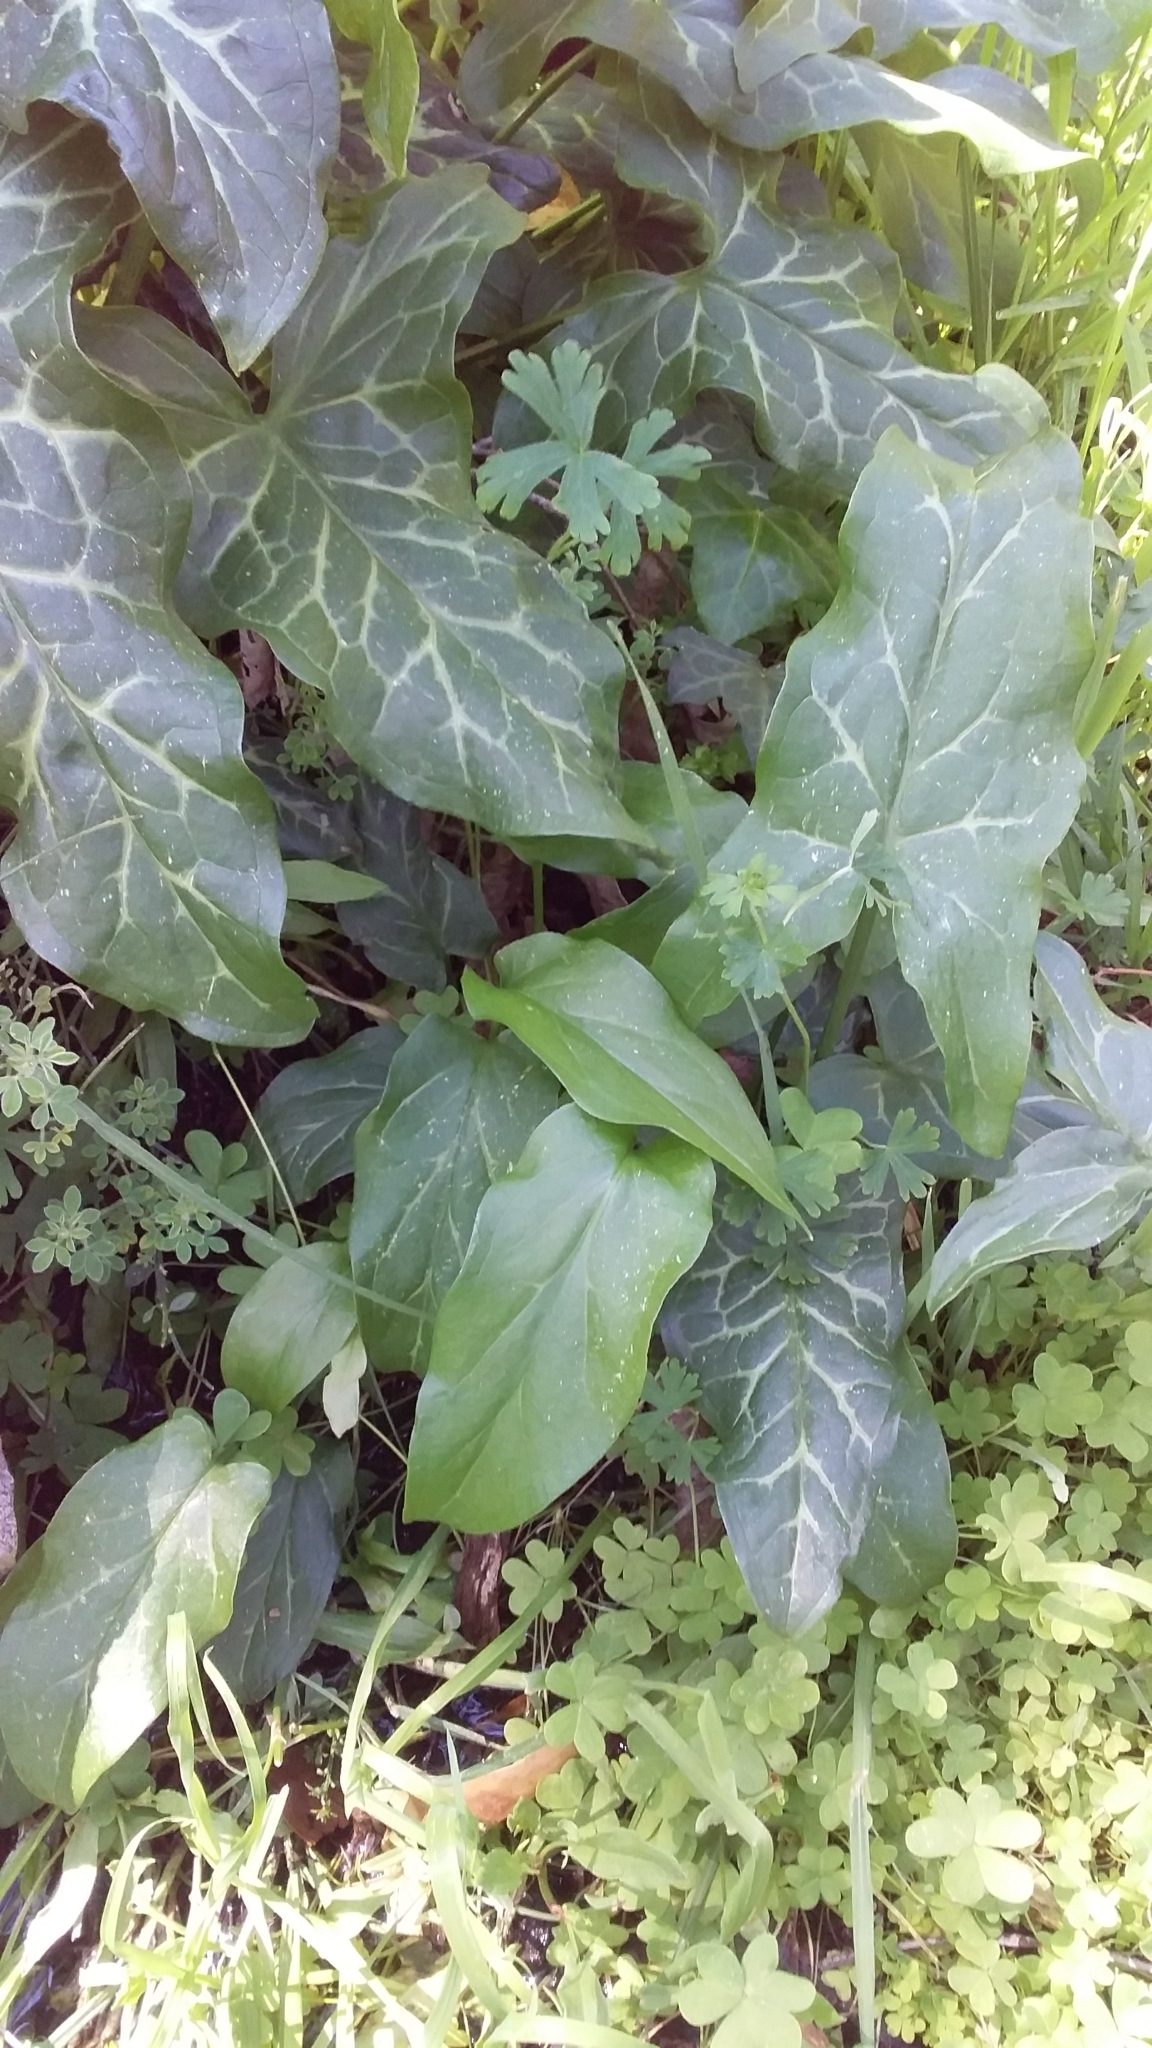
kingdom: Plantae
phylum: Tracheophyta
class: Liliopsida
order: Alismatales
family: Araceae
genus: Arum
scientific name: Arum italicum
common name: Italian lords-and-ladies
